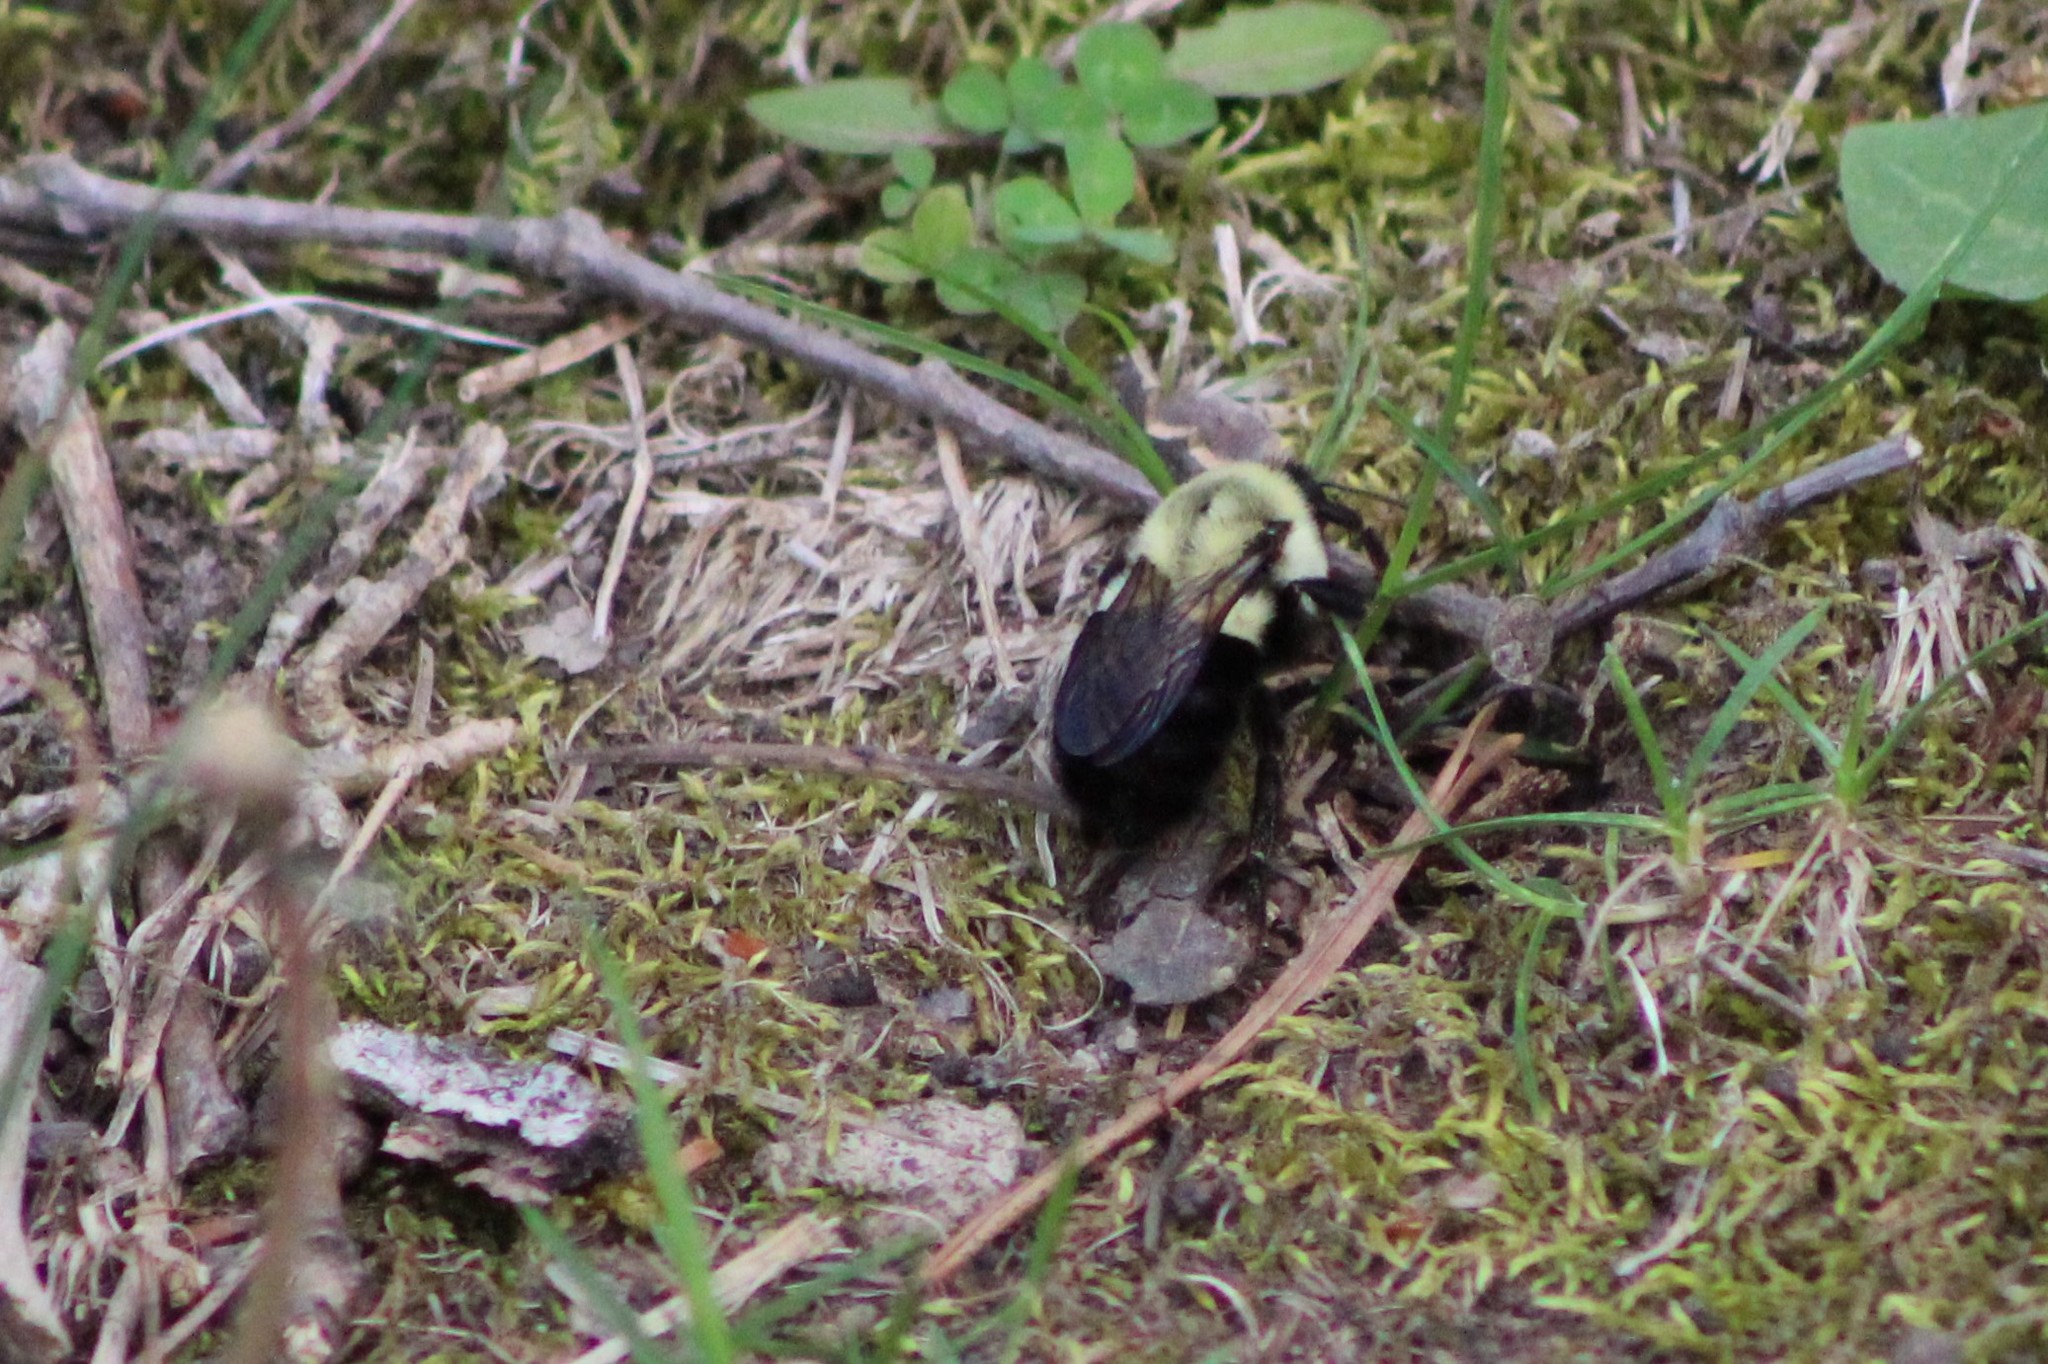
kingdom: Animalia
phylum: Arthropoda
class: Insecta
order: Hymenoptera
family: Apidae
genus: Bombus
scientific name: Bombus impatiens
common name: Common eastern bumble bee
